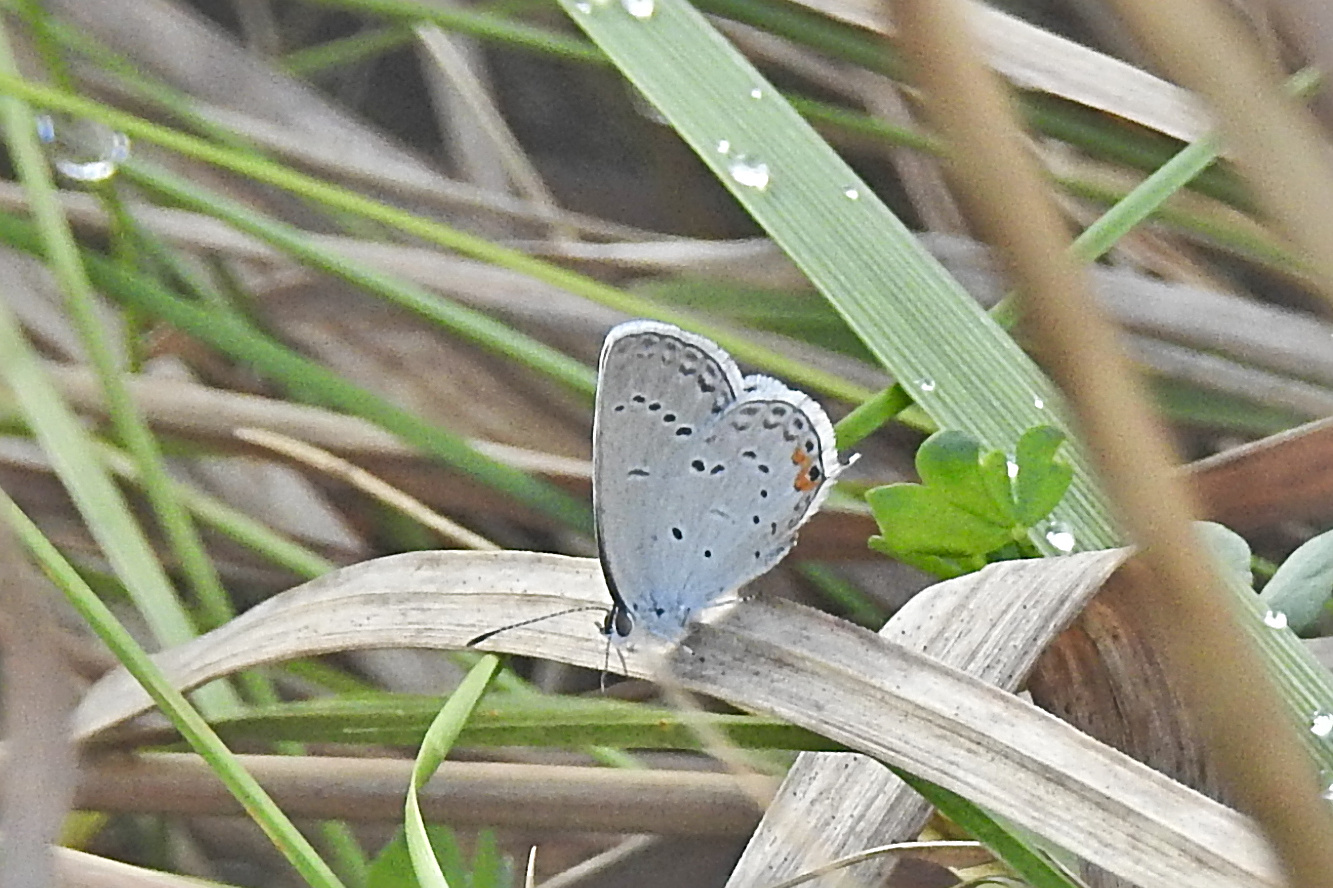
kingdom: Animalia
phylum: Arthropoda
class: Insecta
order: Lepidoptera
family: Lycaenidae
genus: Elkalyce
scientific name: Elkalyce comyntas
